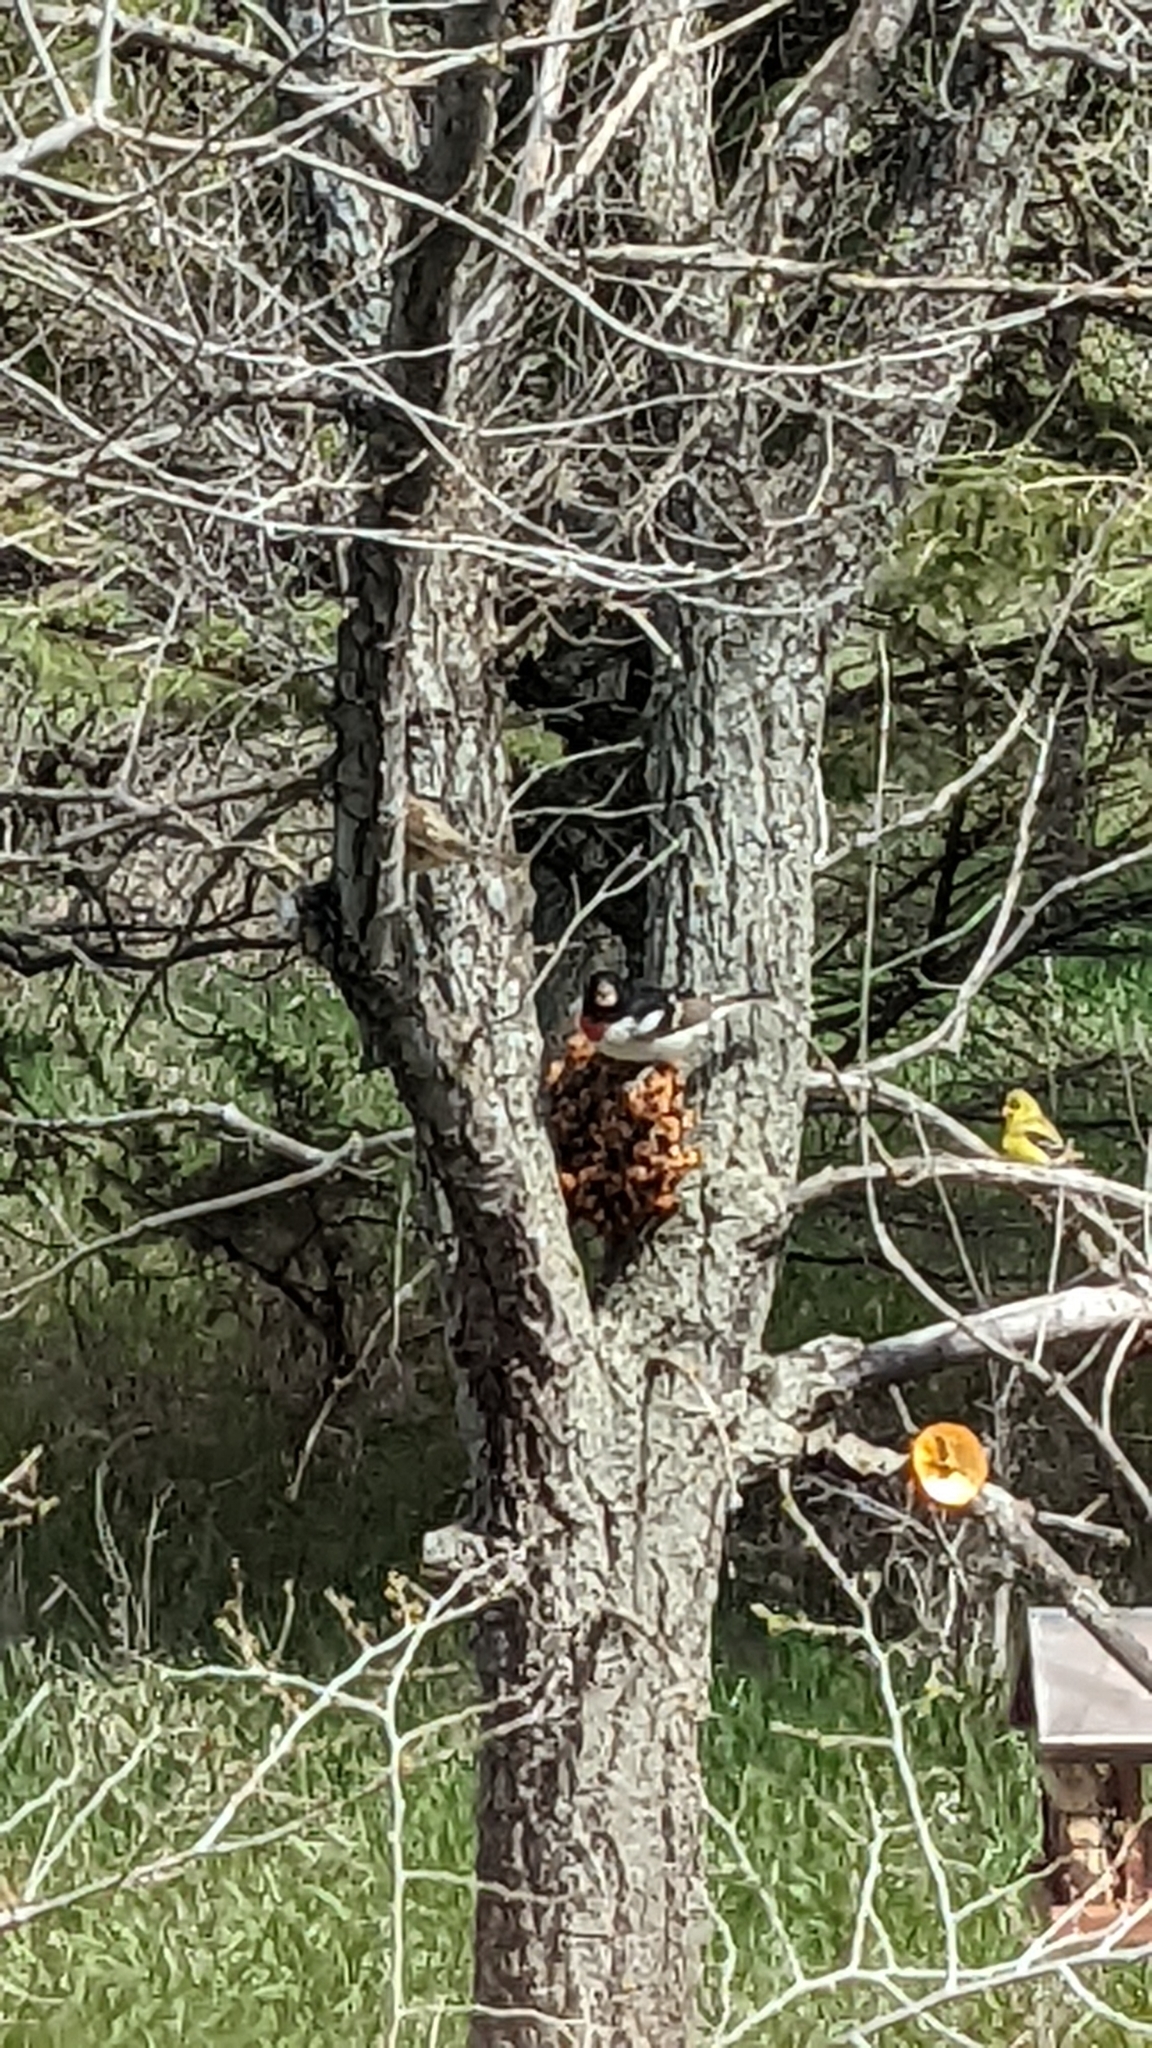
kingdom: Animalia
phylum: Chordata
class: Aves
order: Passeriformes
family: Cardinalidae
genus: Pheucticus
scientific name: Pheucticus ludovicianus
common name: Rose-breasted grosbeak
